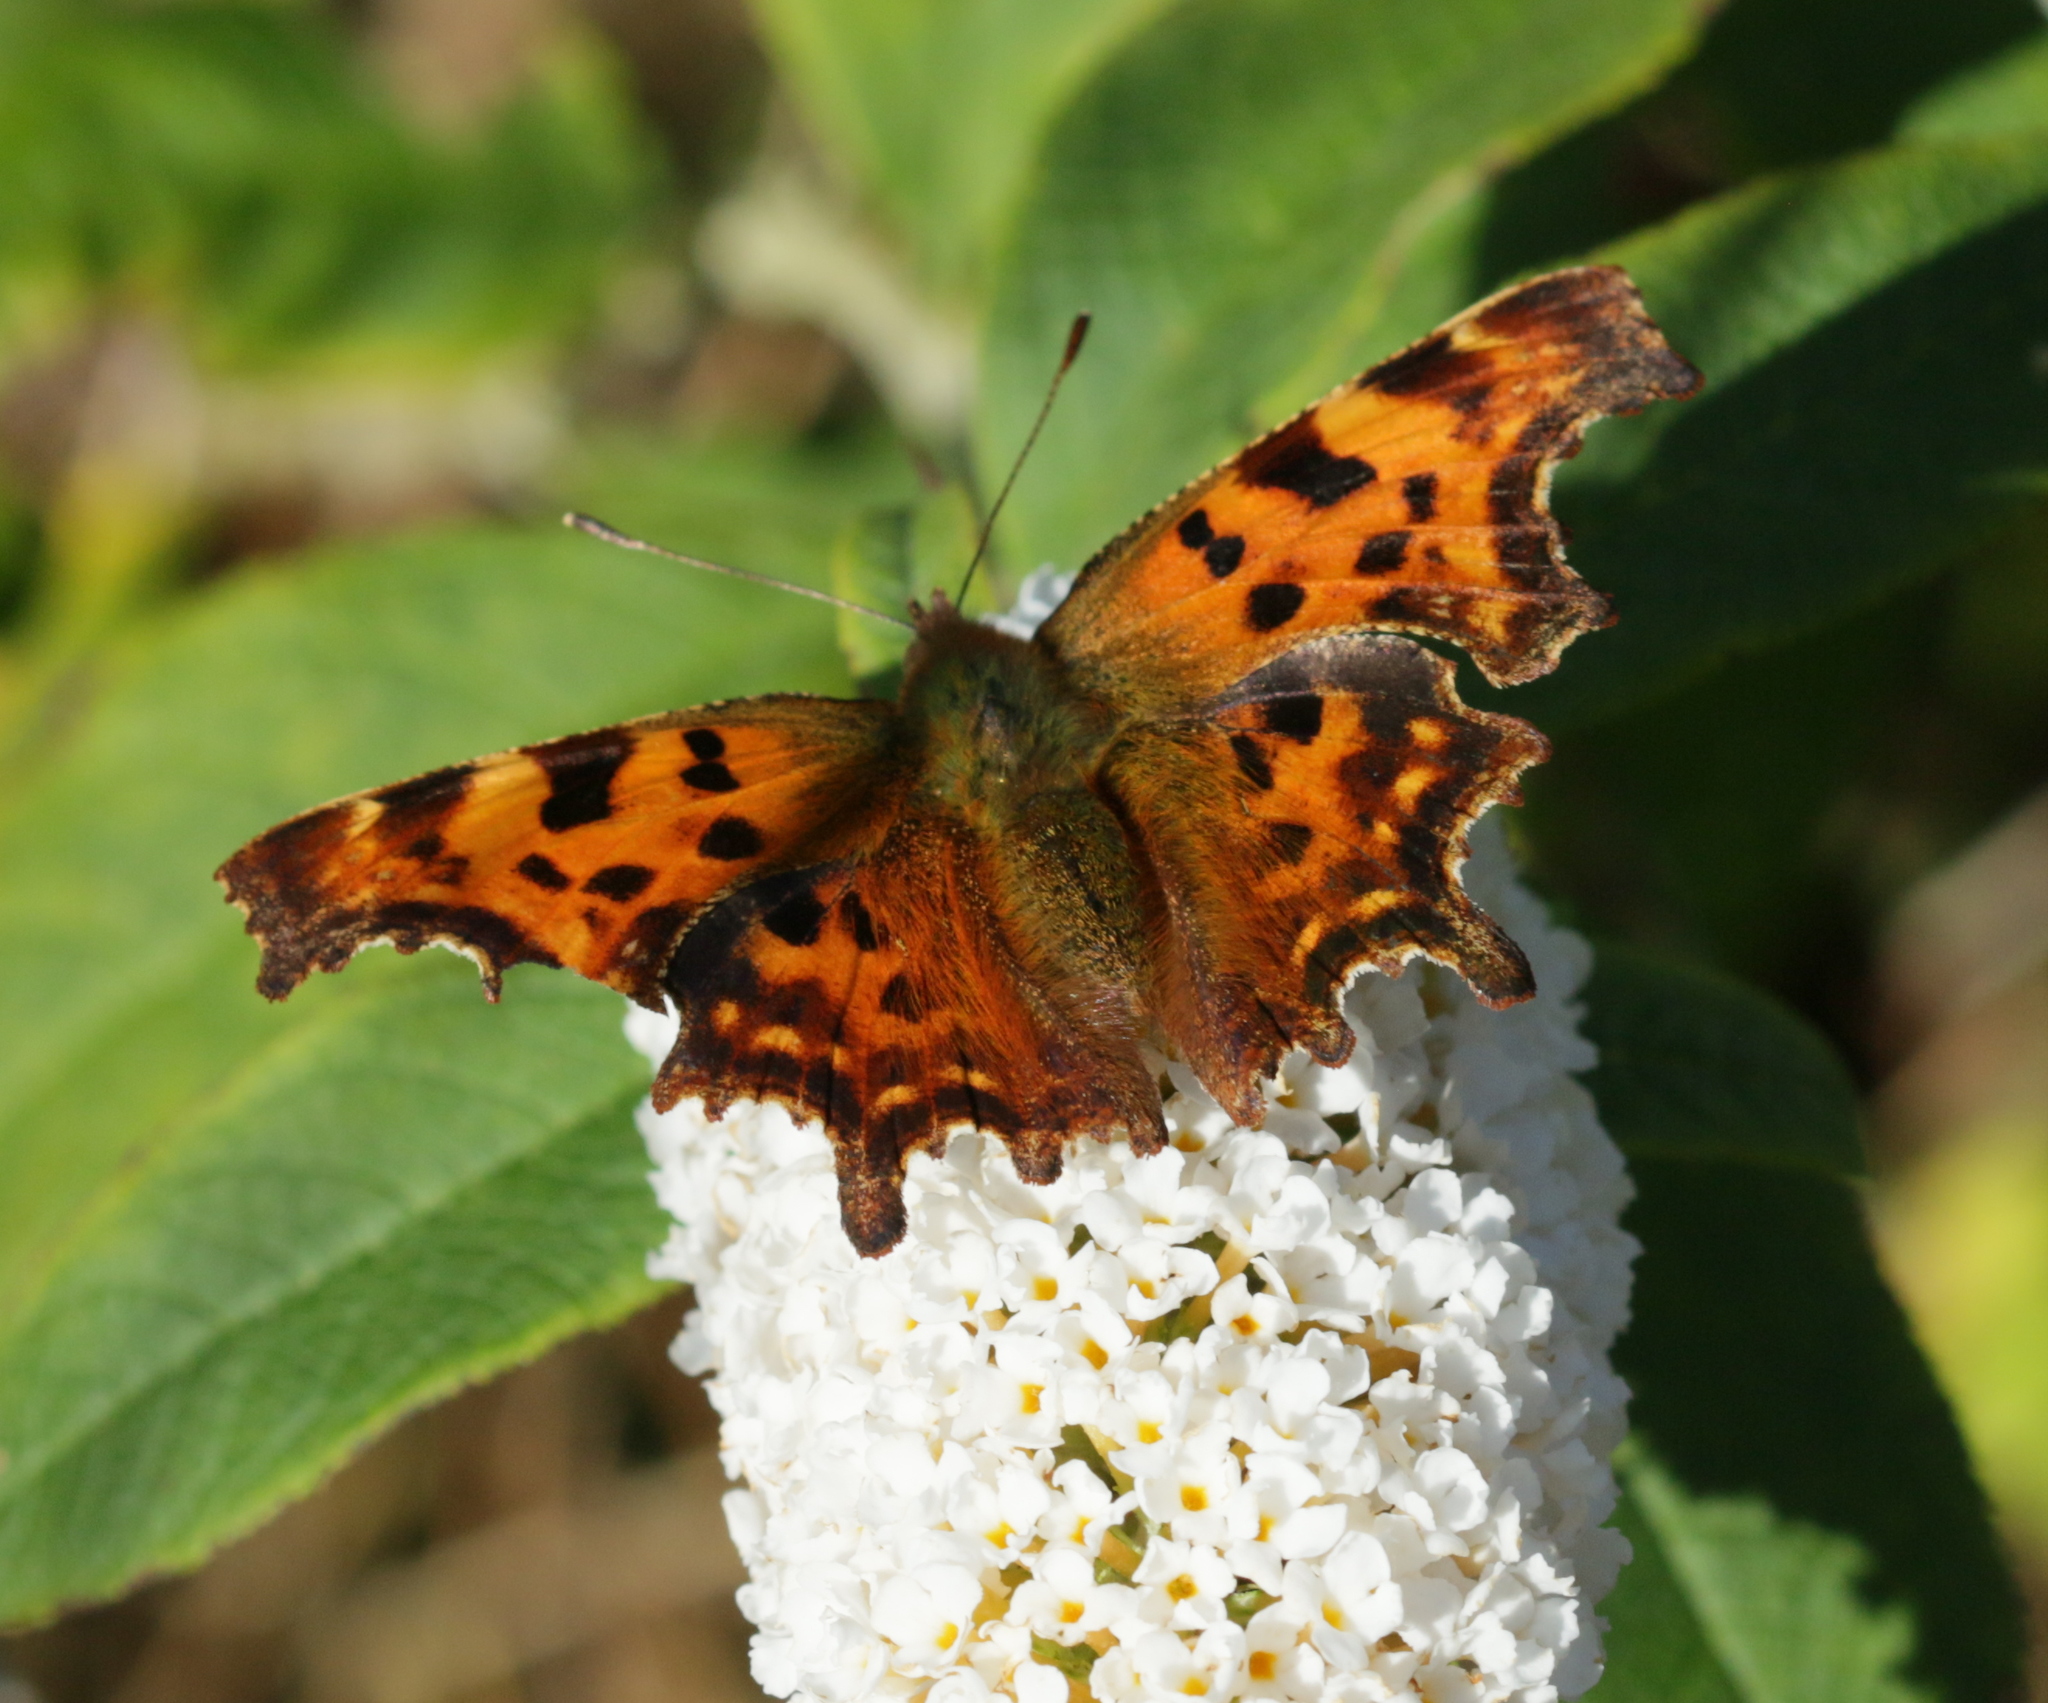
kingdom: Animalia
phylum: Arthropoda
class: Insecta
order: Lepidoptera
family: Nymphalidae
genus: Polygonia
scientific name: Polygonia c-album
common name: Comma
